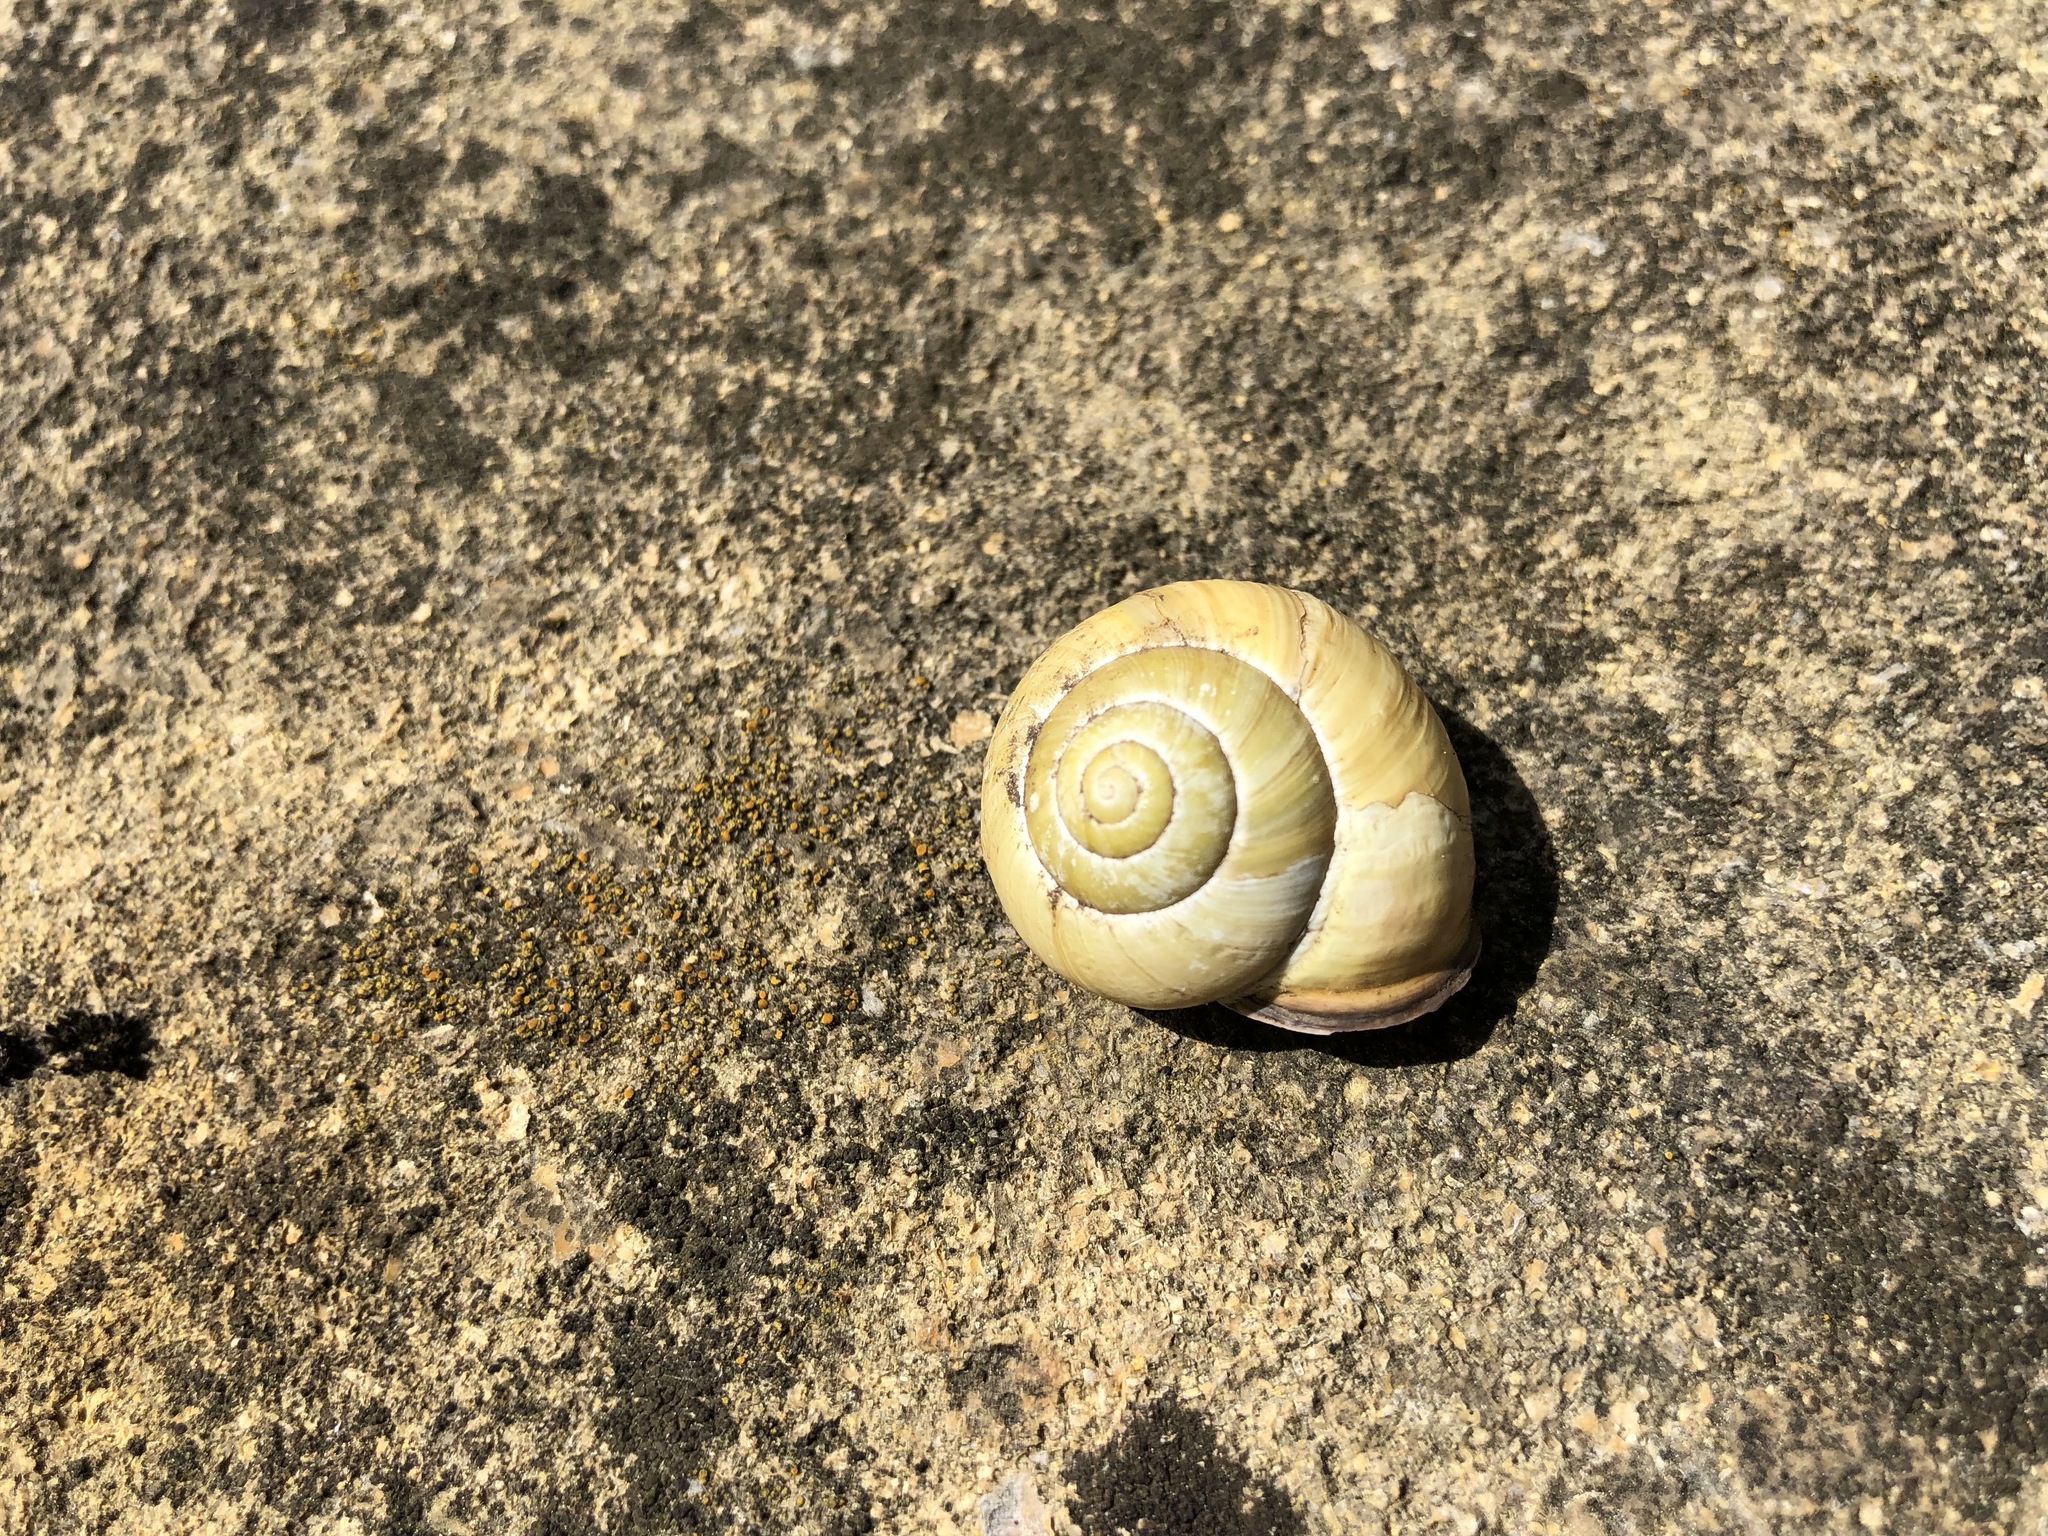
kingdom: Animalia
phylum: Mollusca
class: Gastropoda
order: Stylommatophora
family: Helicidae
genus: Cepaea
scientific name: Cepaea nemoralis
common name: Grovesnail
